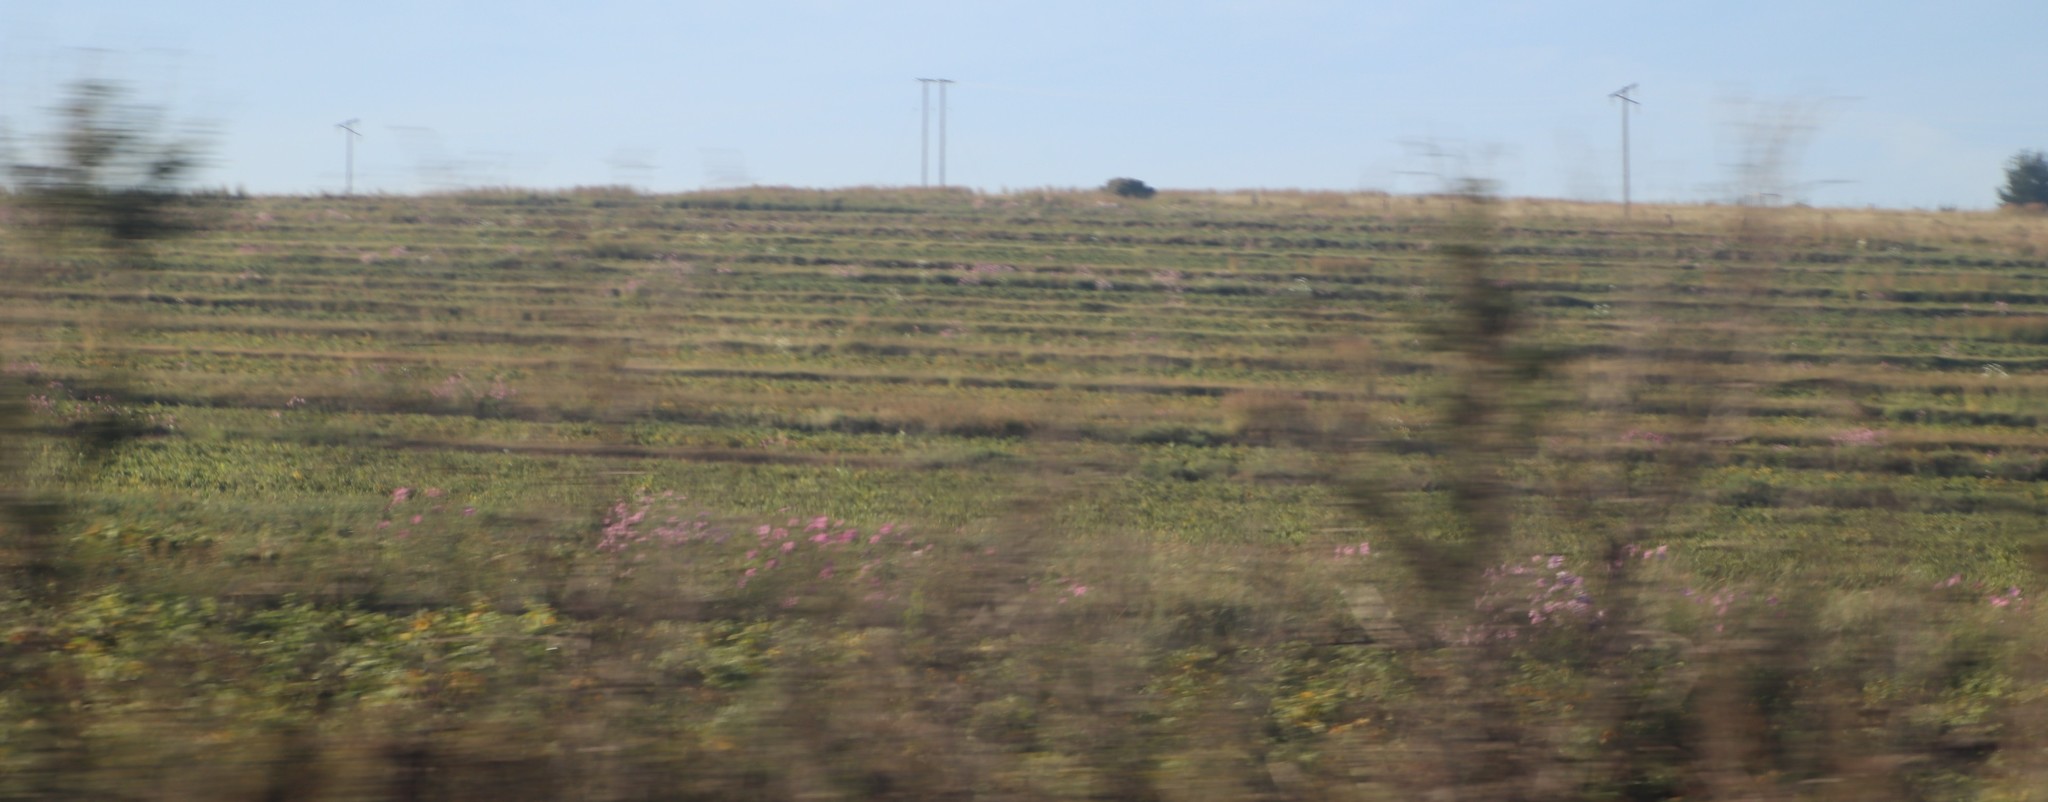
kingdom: Plantae
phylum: Tracheophyta
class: Magnoliopsida
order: Asterales
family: Asteraceae
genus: Cosmos
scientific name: Cosmos bipinnatus
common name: Garden cosmos
